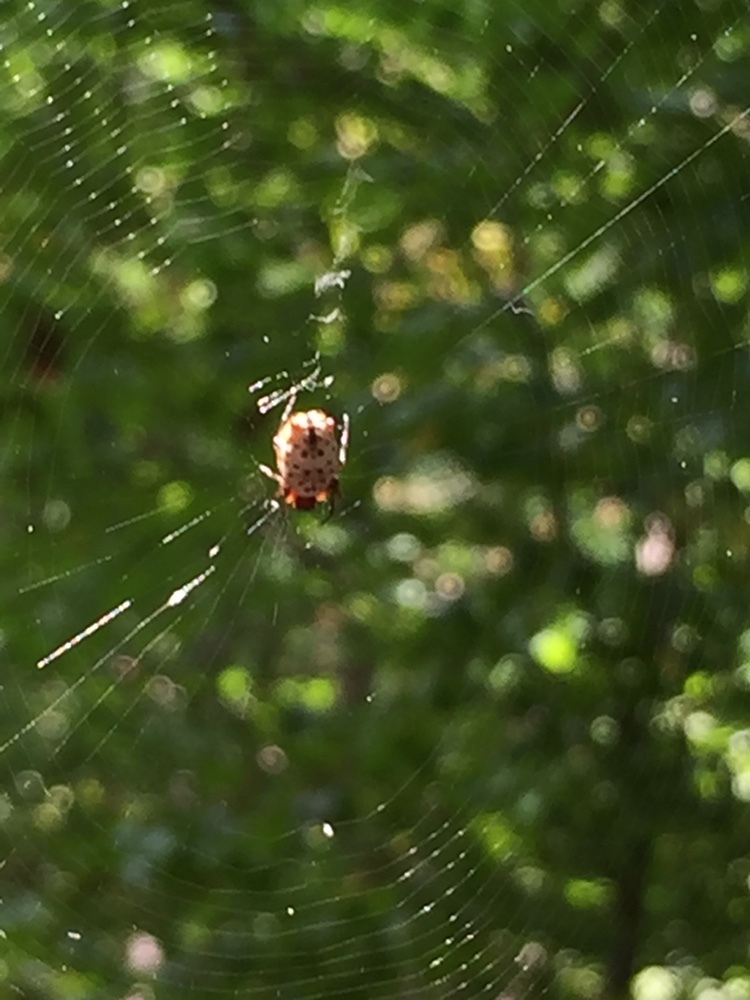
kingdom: Animalia
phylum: Arthropoda
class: Arachnida
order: Araneae
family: Araneidae
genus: Micrathena
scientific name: Micrathena mitrata
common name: Orb weavers
